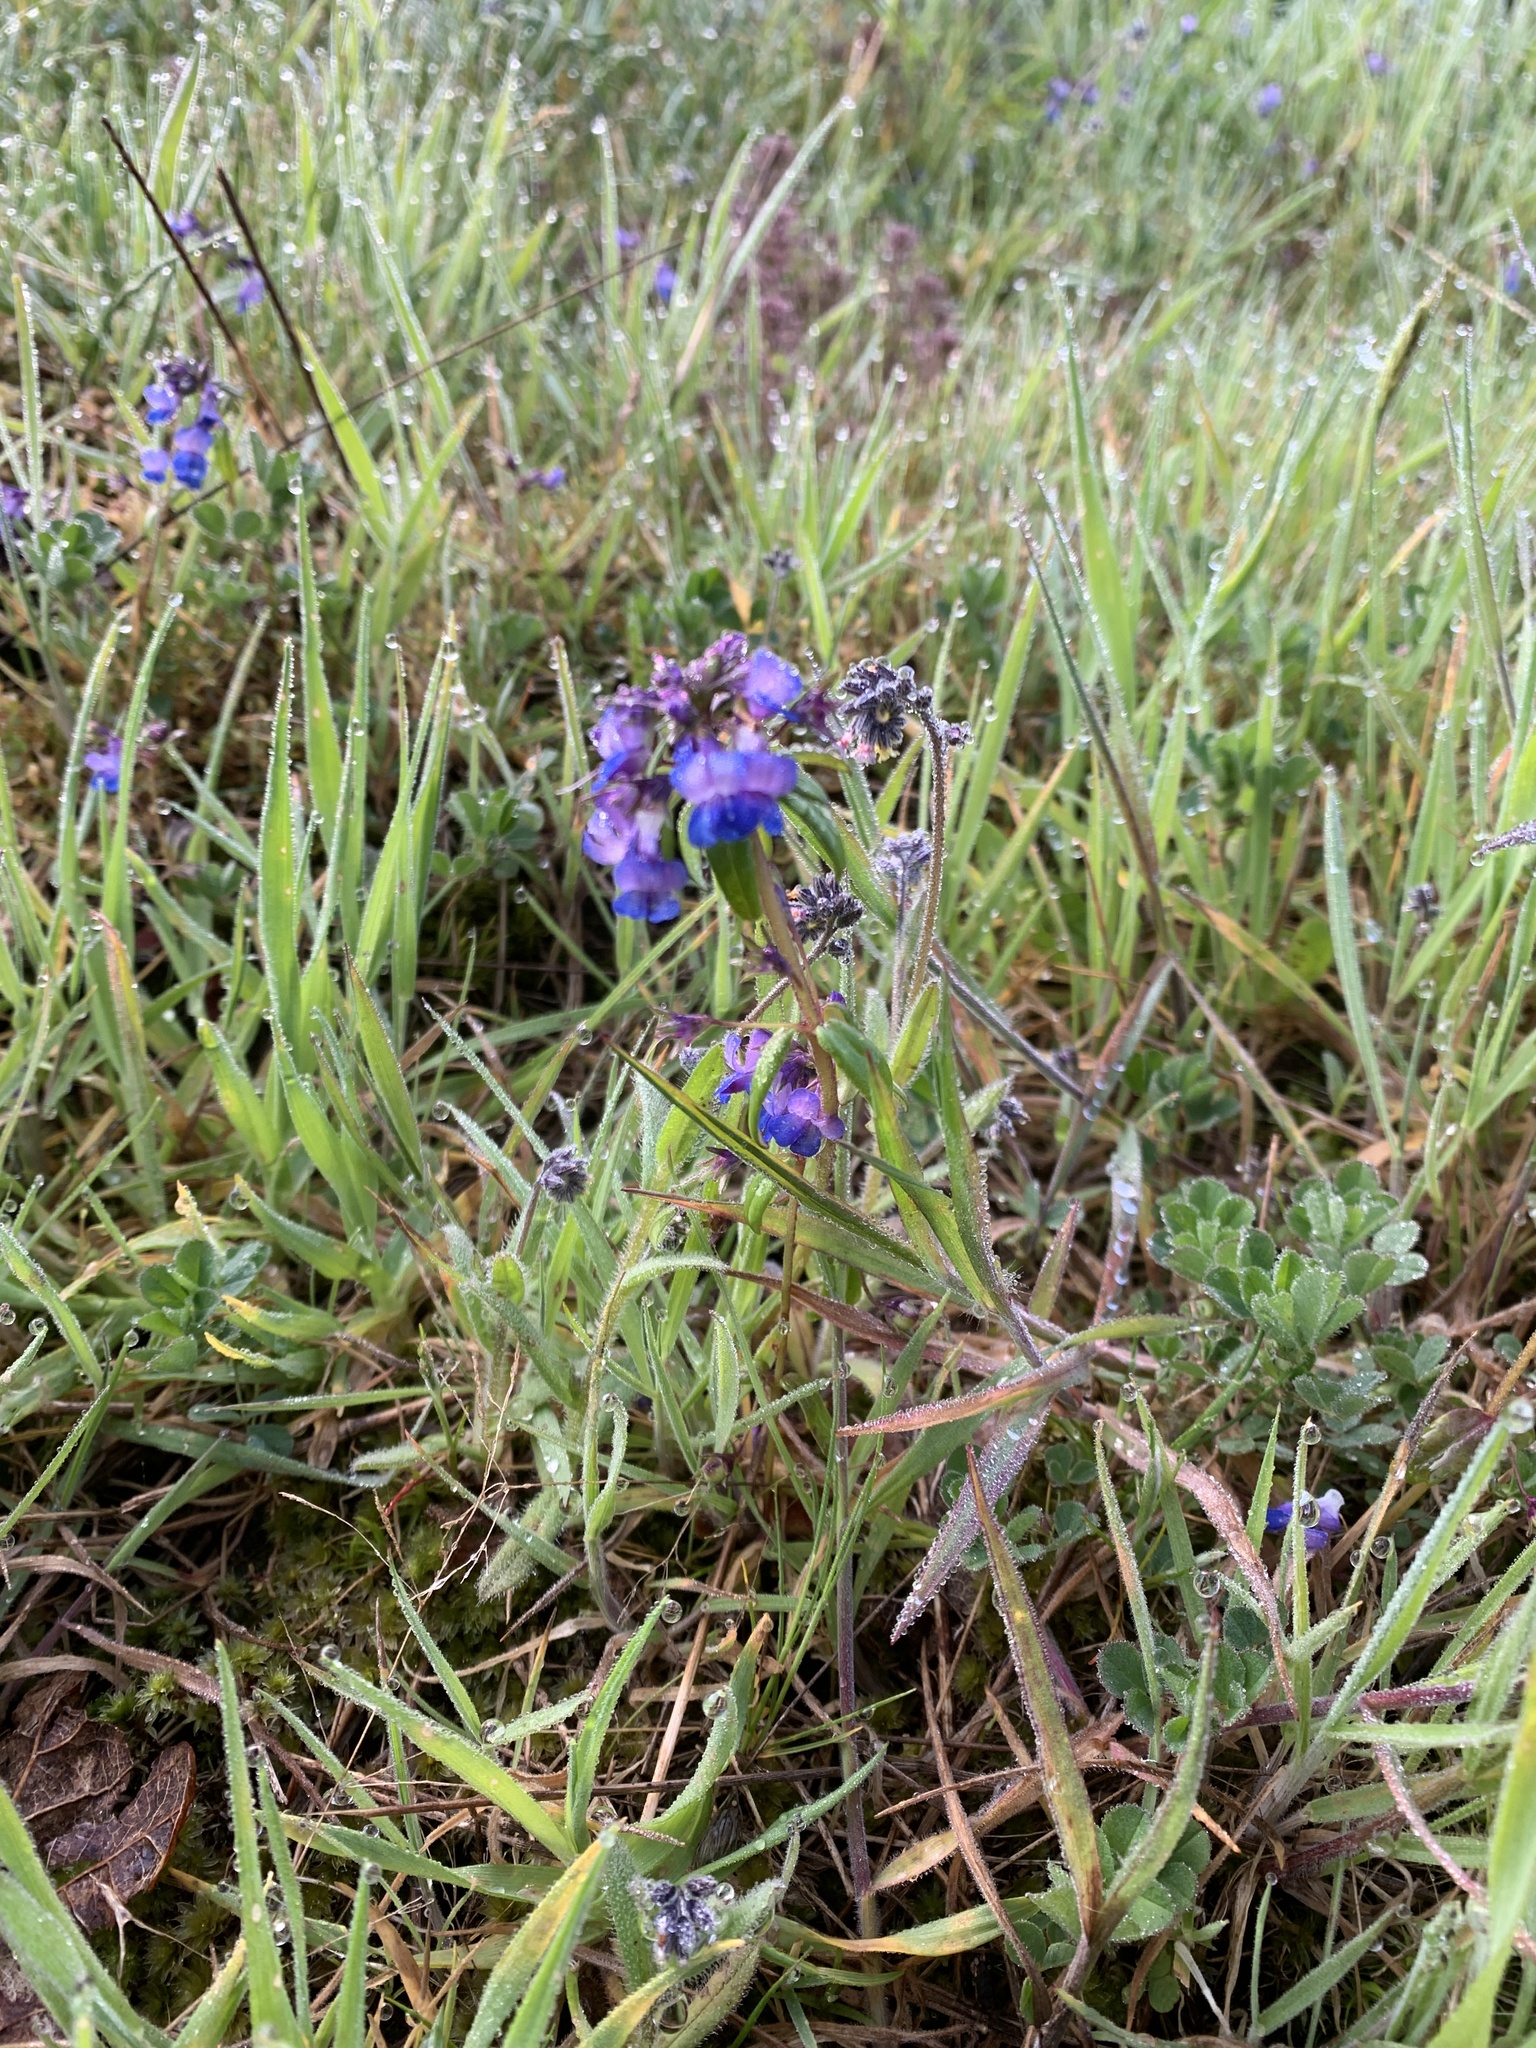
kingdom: Plantae
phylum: Tracheophyta
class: Magnoliopsida
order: Lamiales
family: Plantaginaceae
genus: Collinsia
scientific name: Collinsia grandiflora
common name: Large-flower blue-eyed-mary
